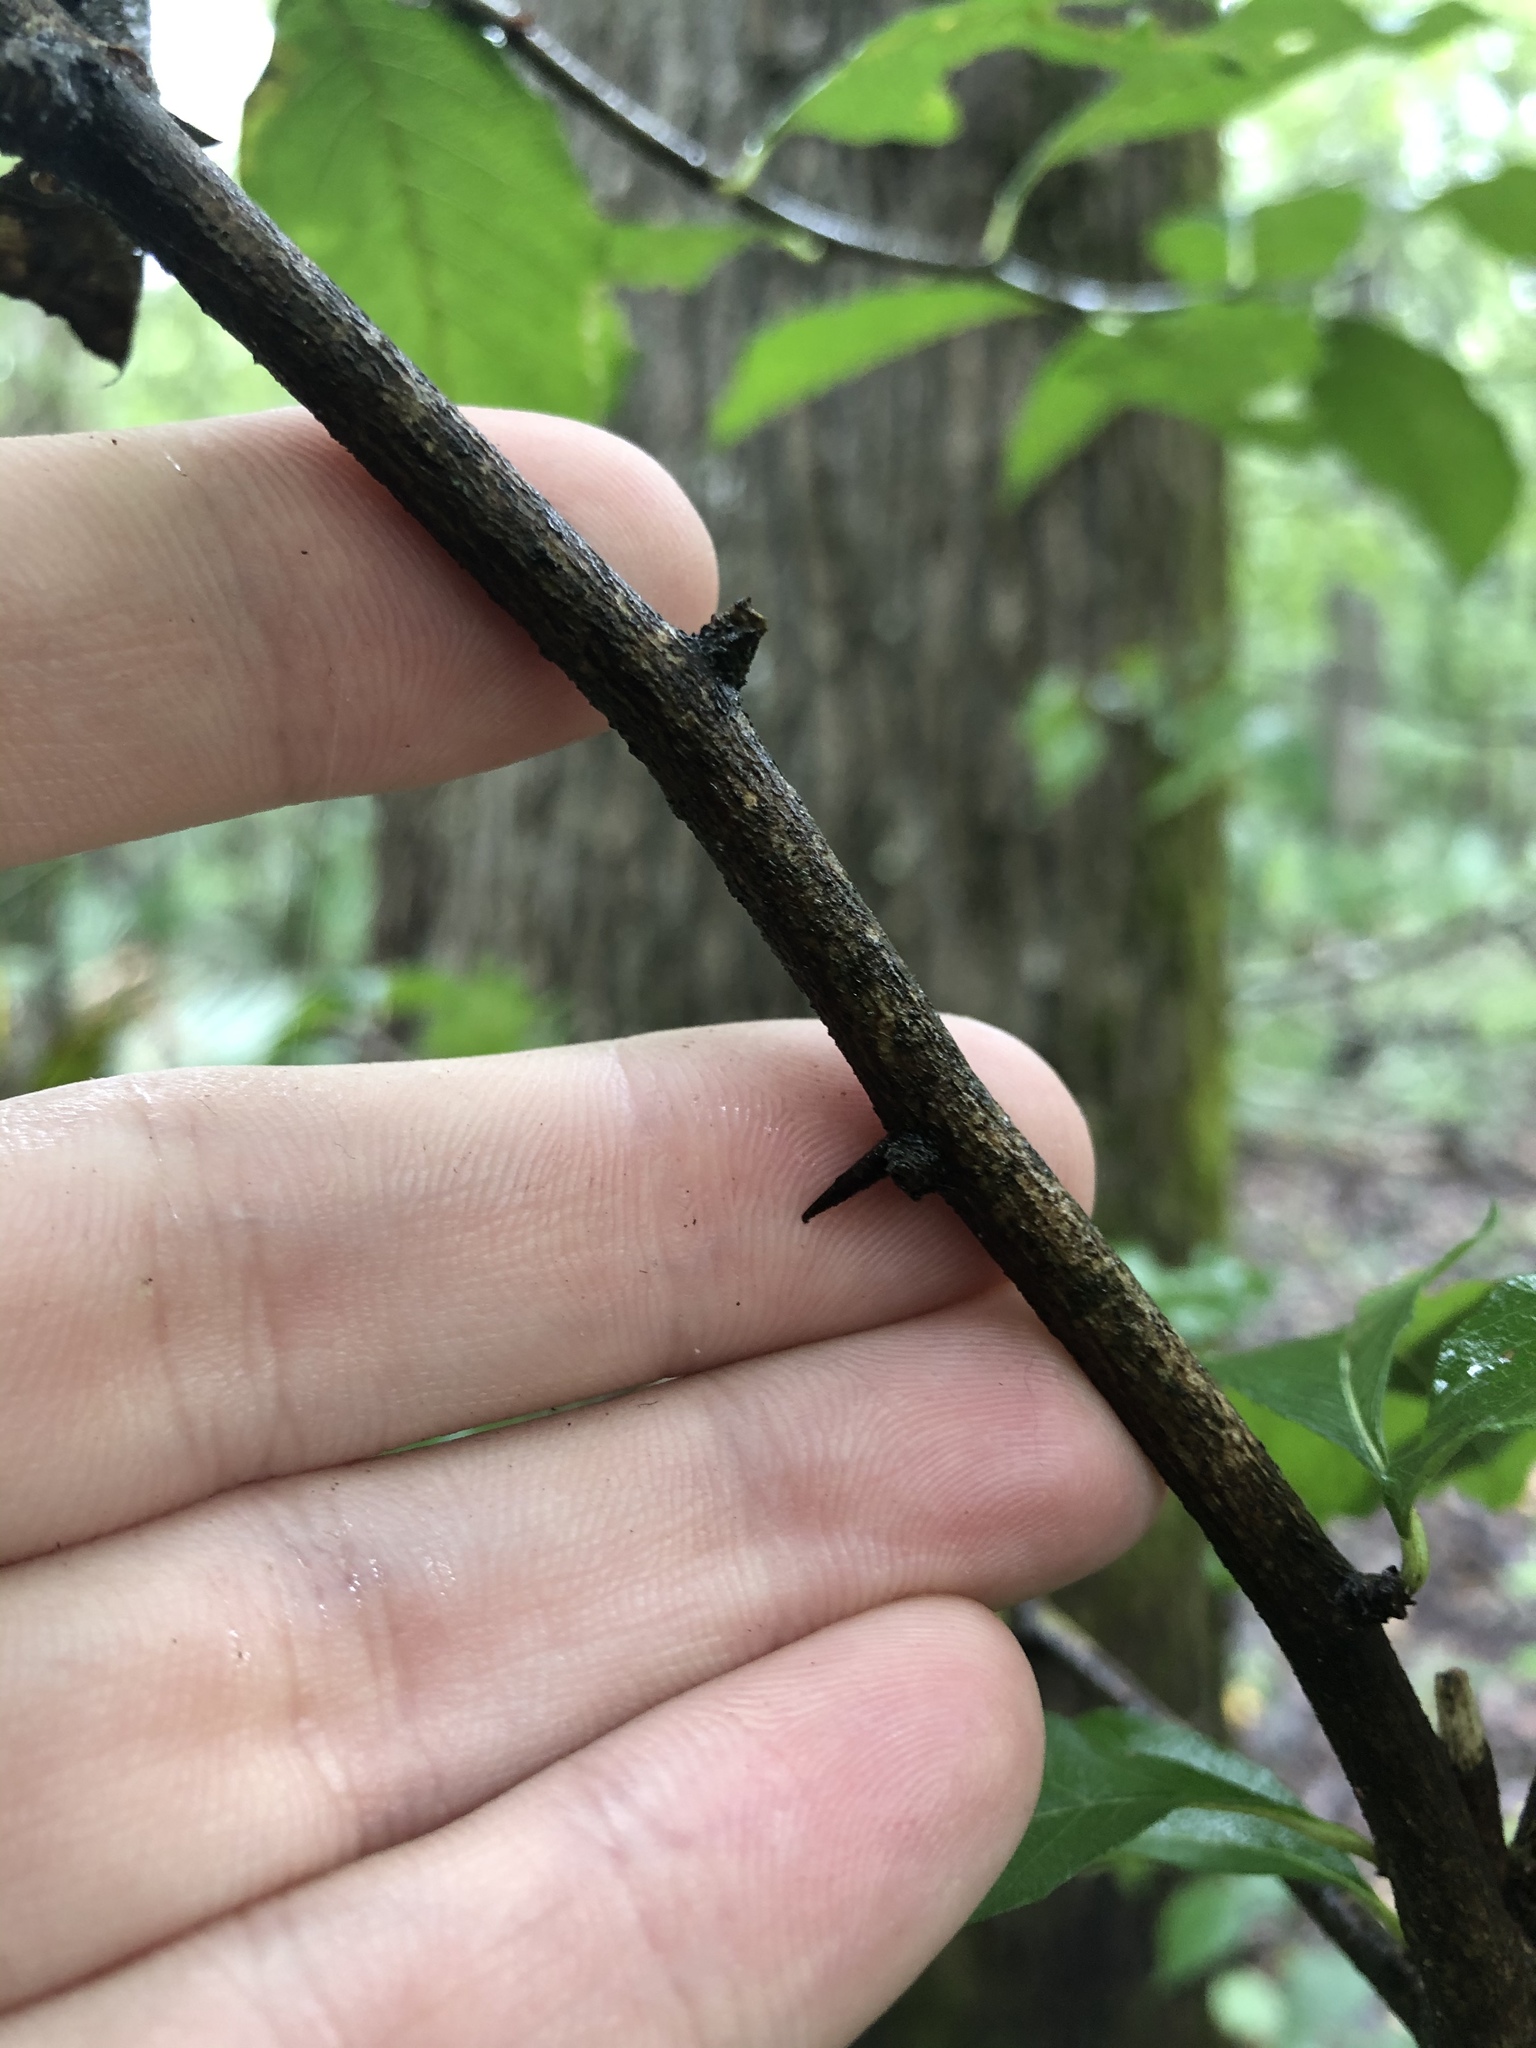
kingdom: Plantae
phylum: Tracheophyta
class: Magnoliopsida
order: Ericales
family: Sapotaceae
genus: Sideroxylon
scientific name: Sideroxylon lycioides
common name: Buckthorn bumelia
